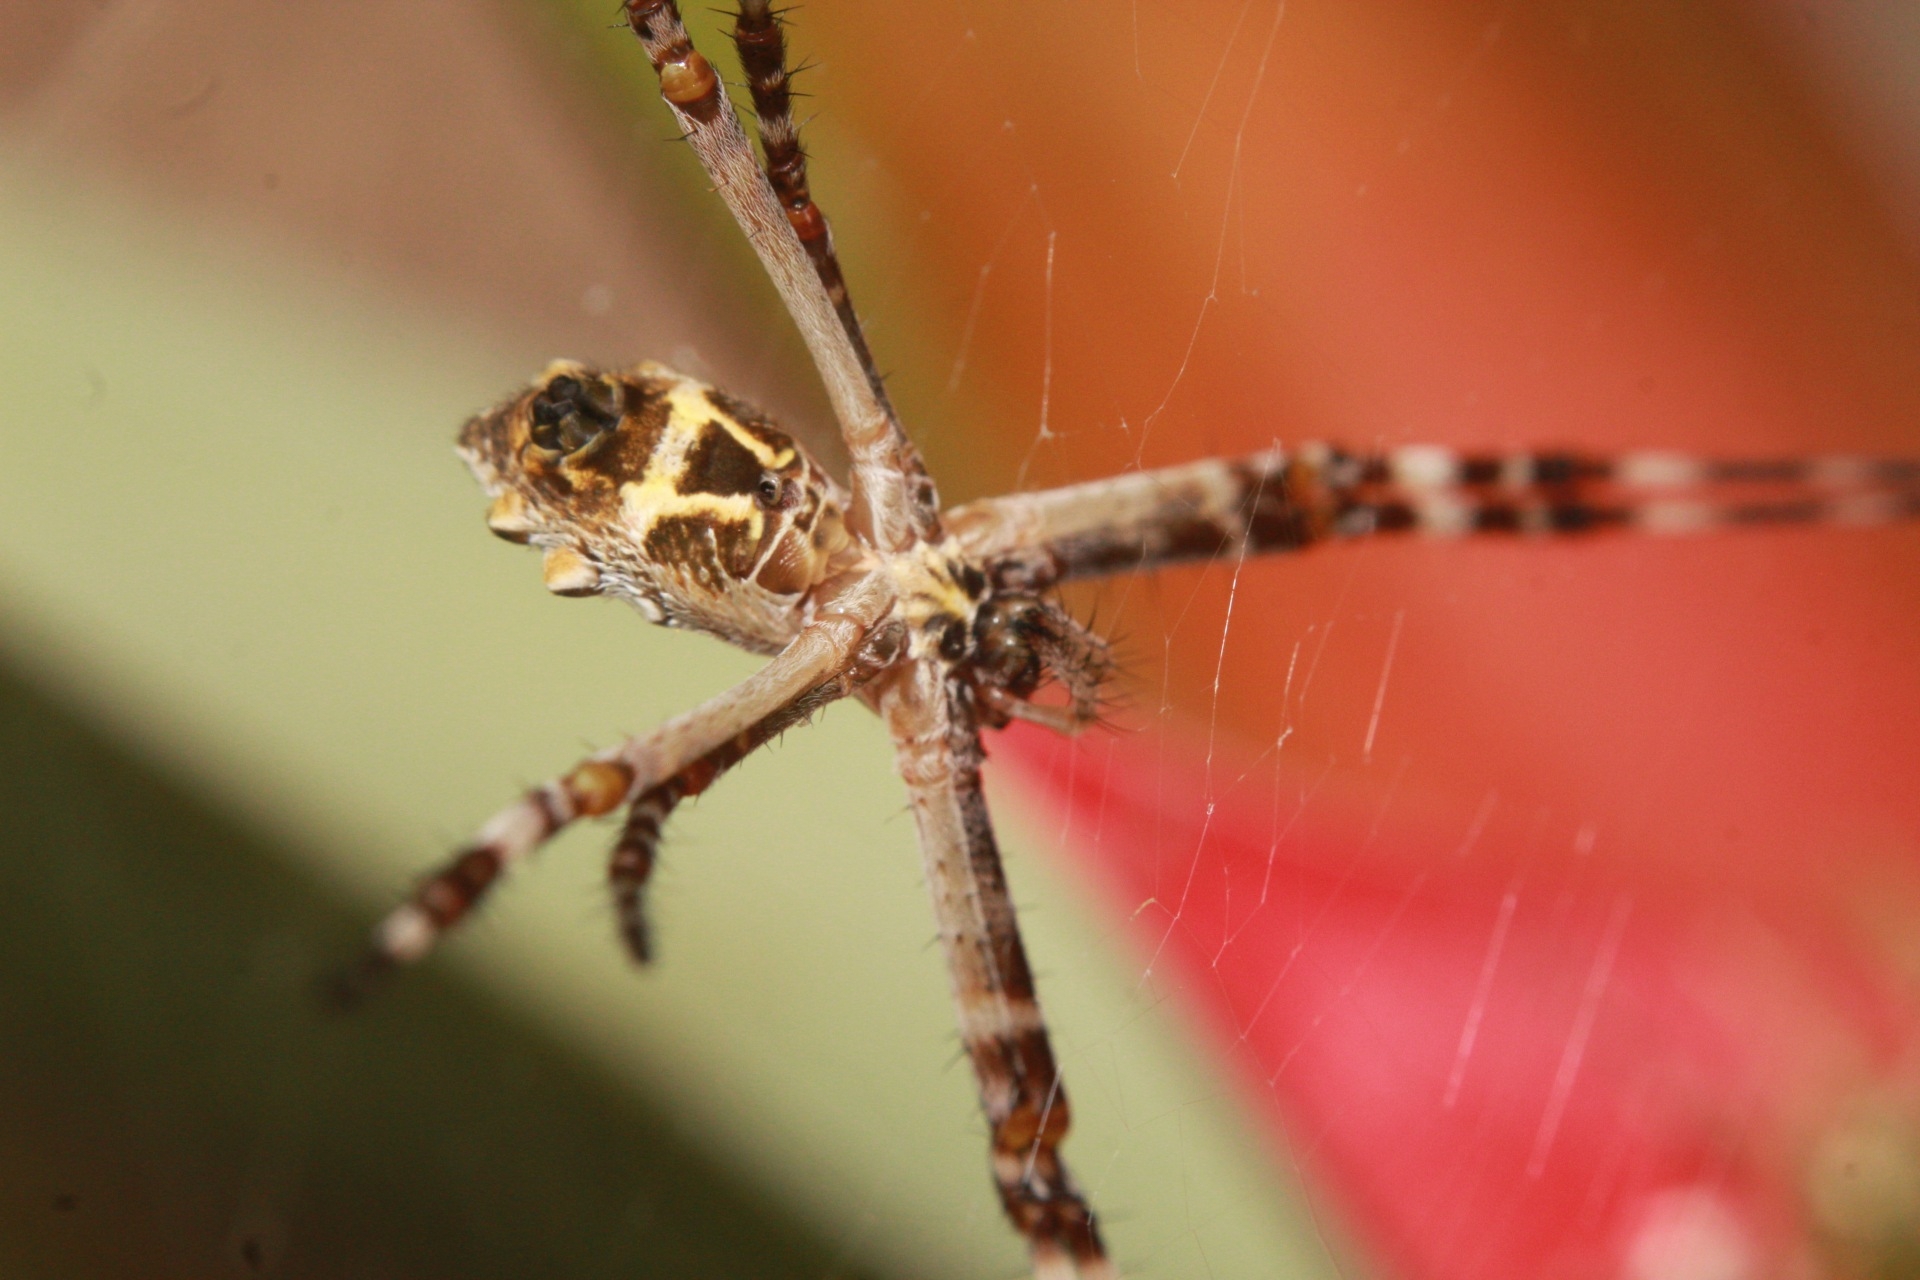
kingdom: Animalia
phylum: Arthropoda
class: Arachnida
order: Araneae
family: Araneidae
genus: Argiope
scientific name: Argiope argentata
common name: Orb weavers
